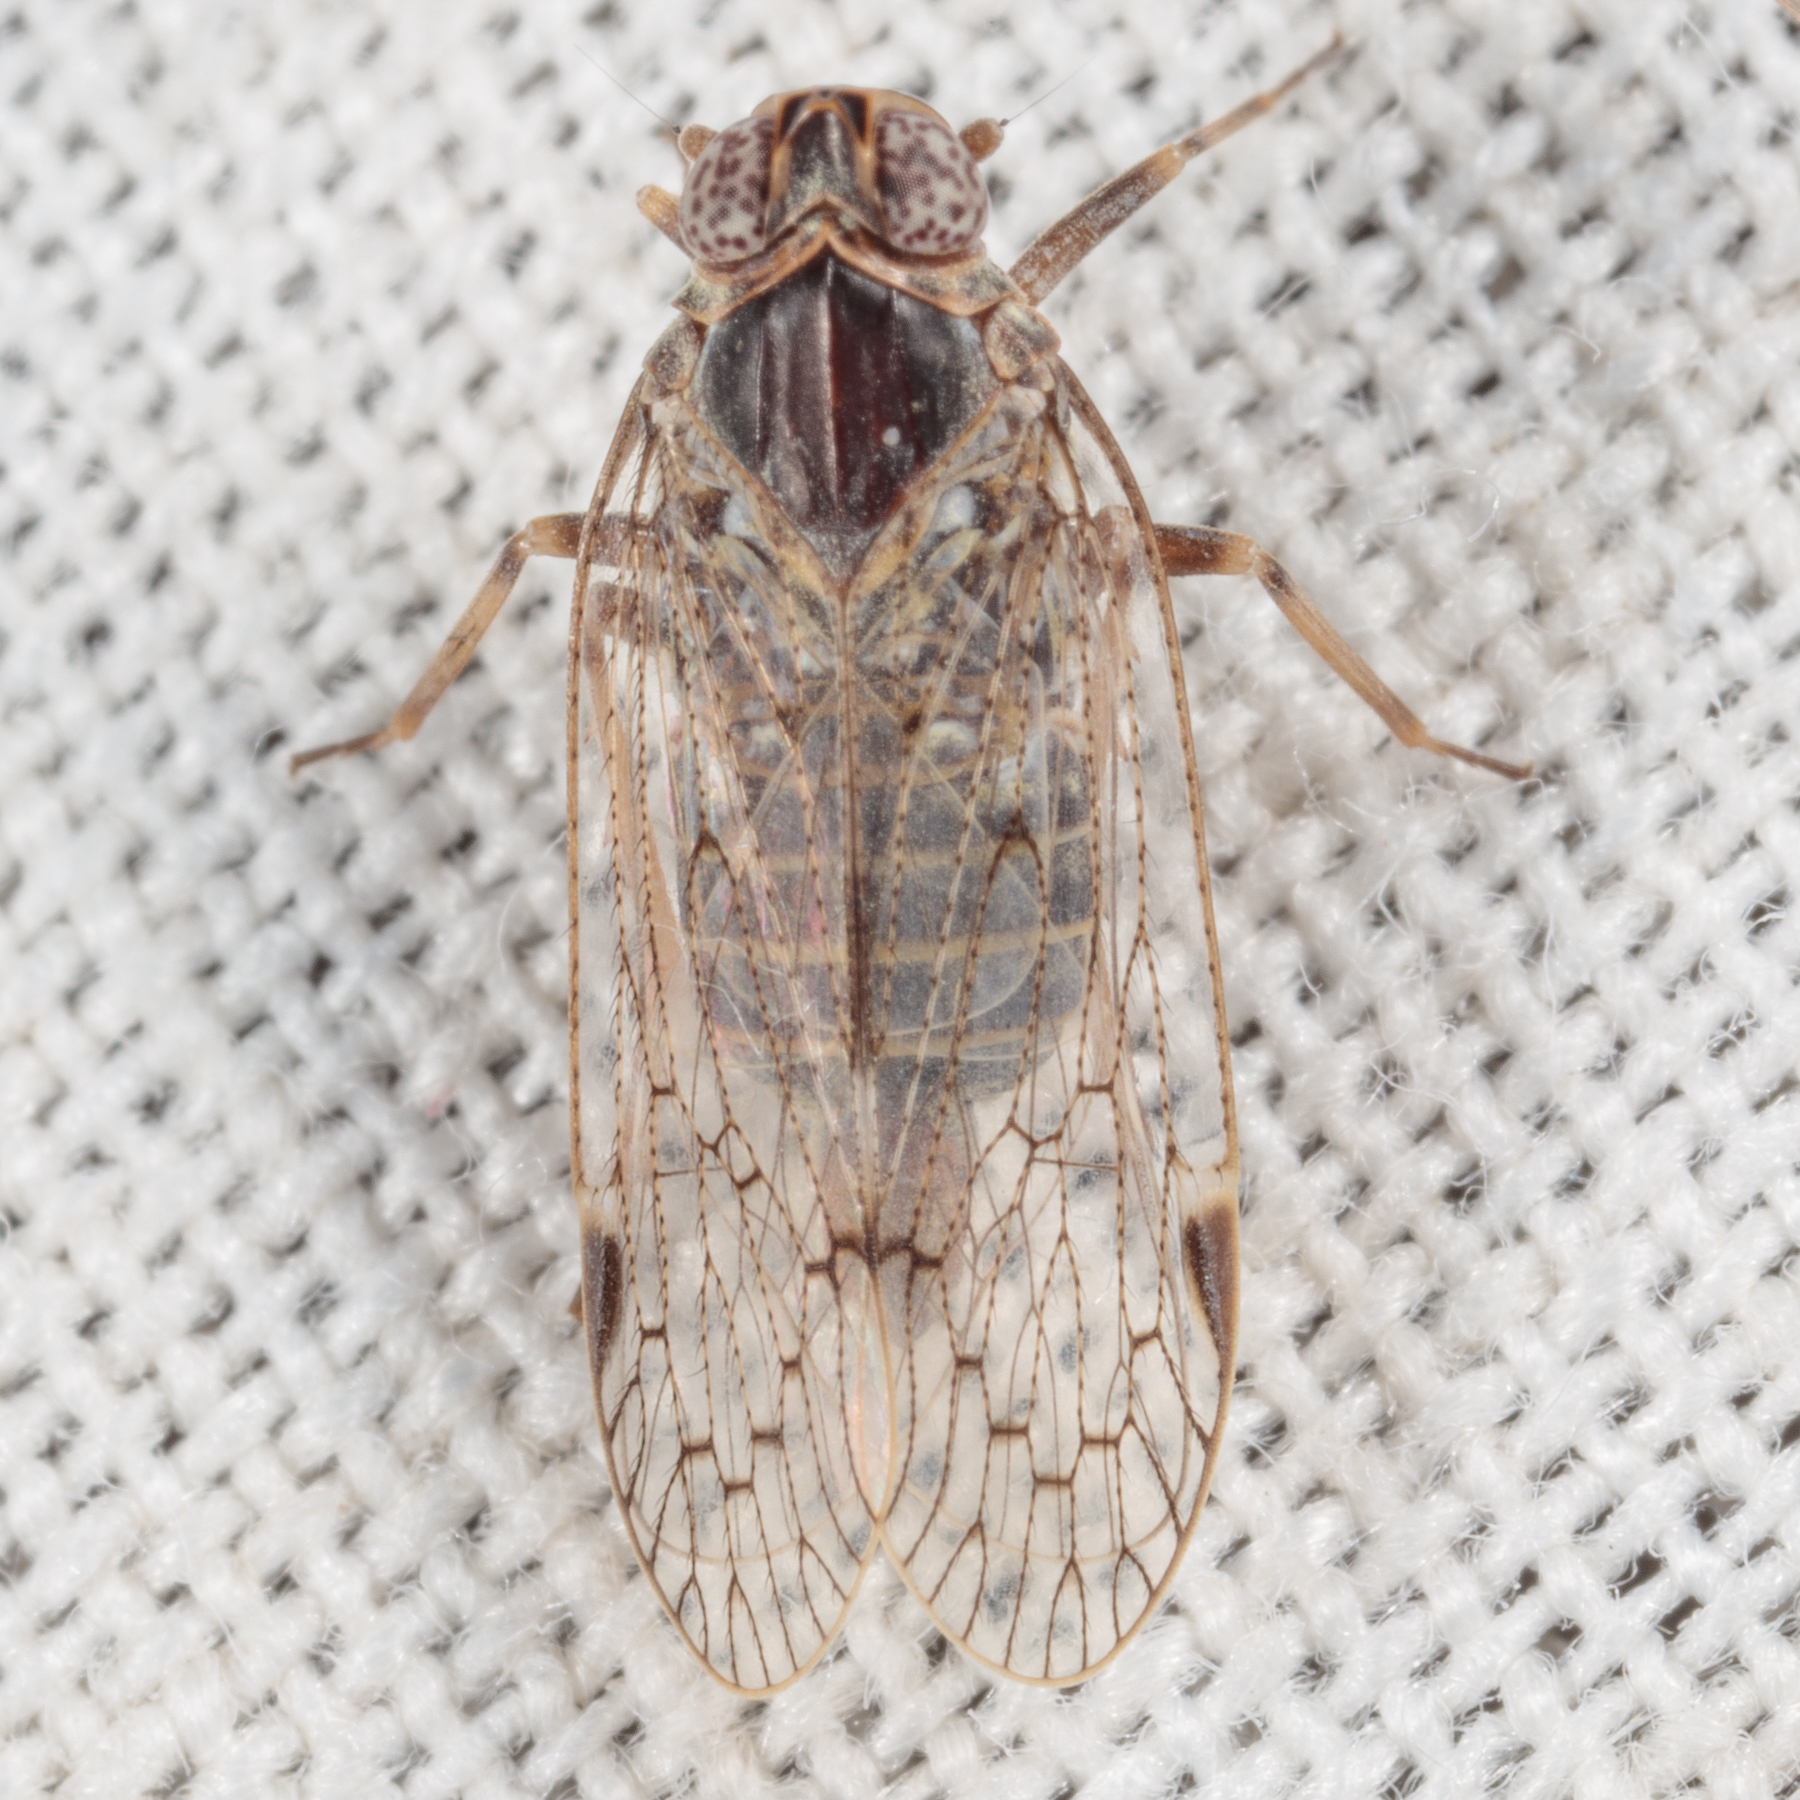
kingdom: Animalia
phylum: Arthropoda
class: Insecta
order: Hemiptera
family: Cixiidae
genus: Melanoliarus
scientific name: Melanoliarus aridus
